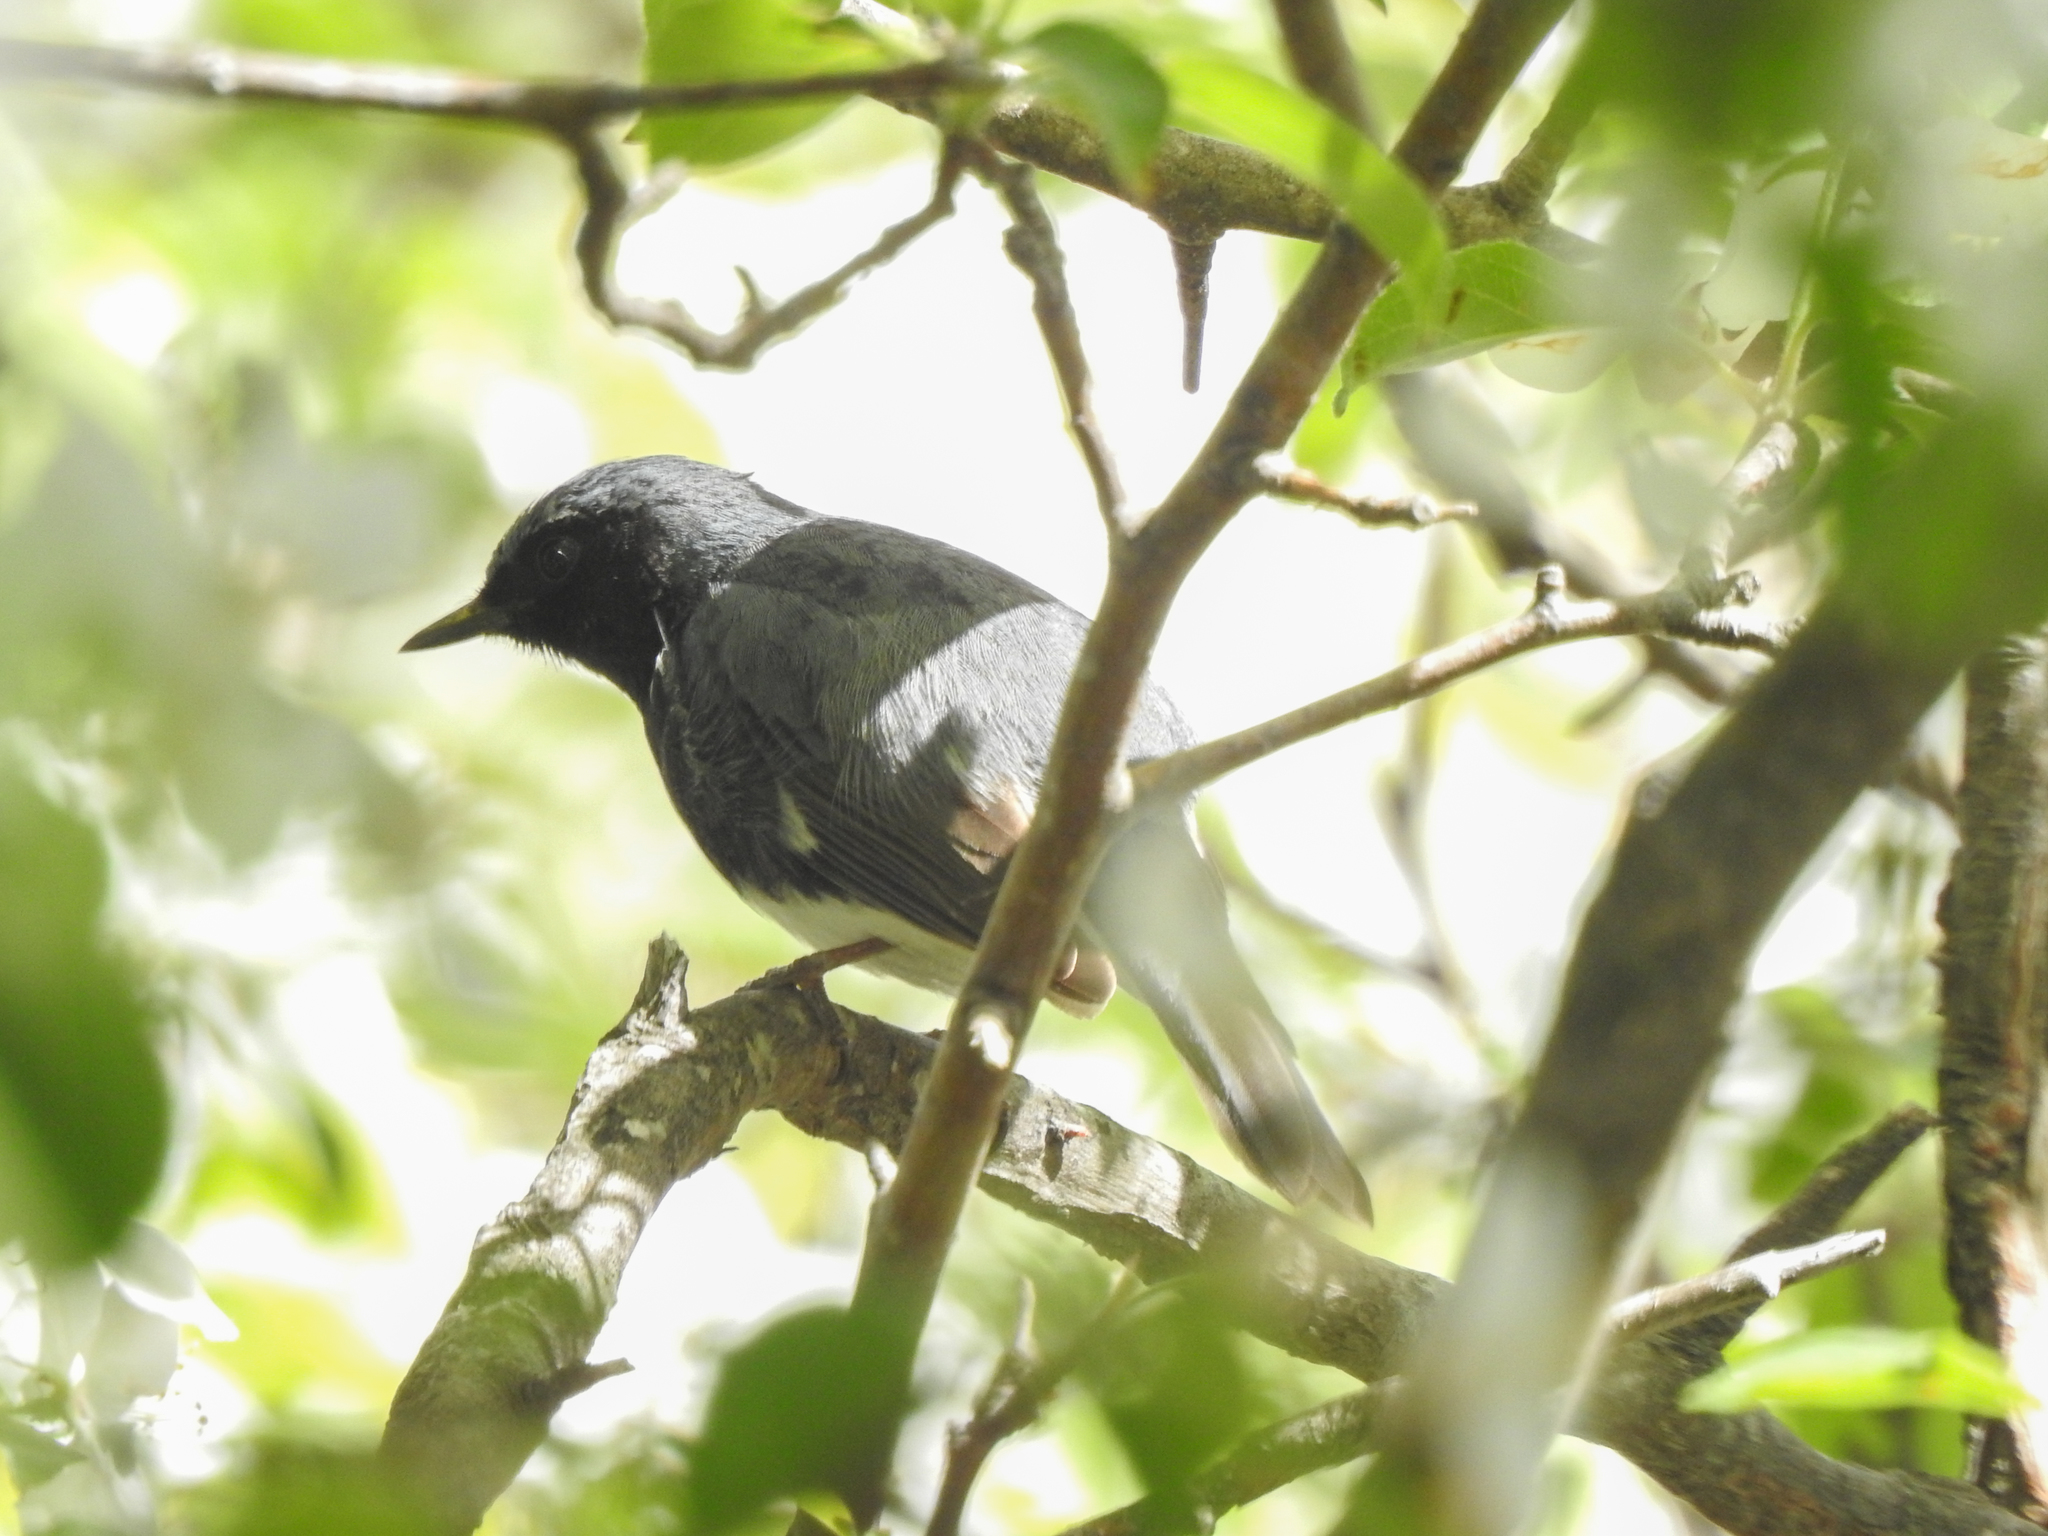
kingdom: Animalia
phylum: Chordata
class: Aves
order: Passeriformes
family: Parulidae
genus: Setophaga
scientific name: Setophaga caerulescens
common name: Black-throated blue warbler
